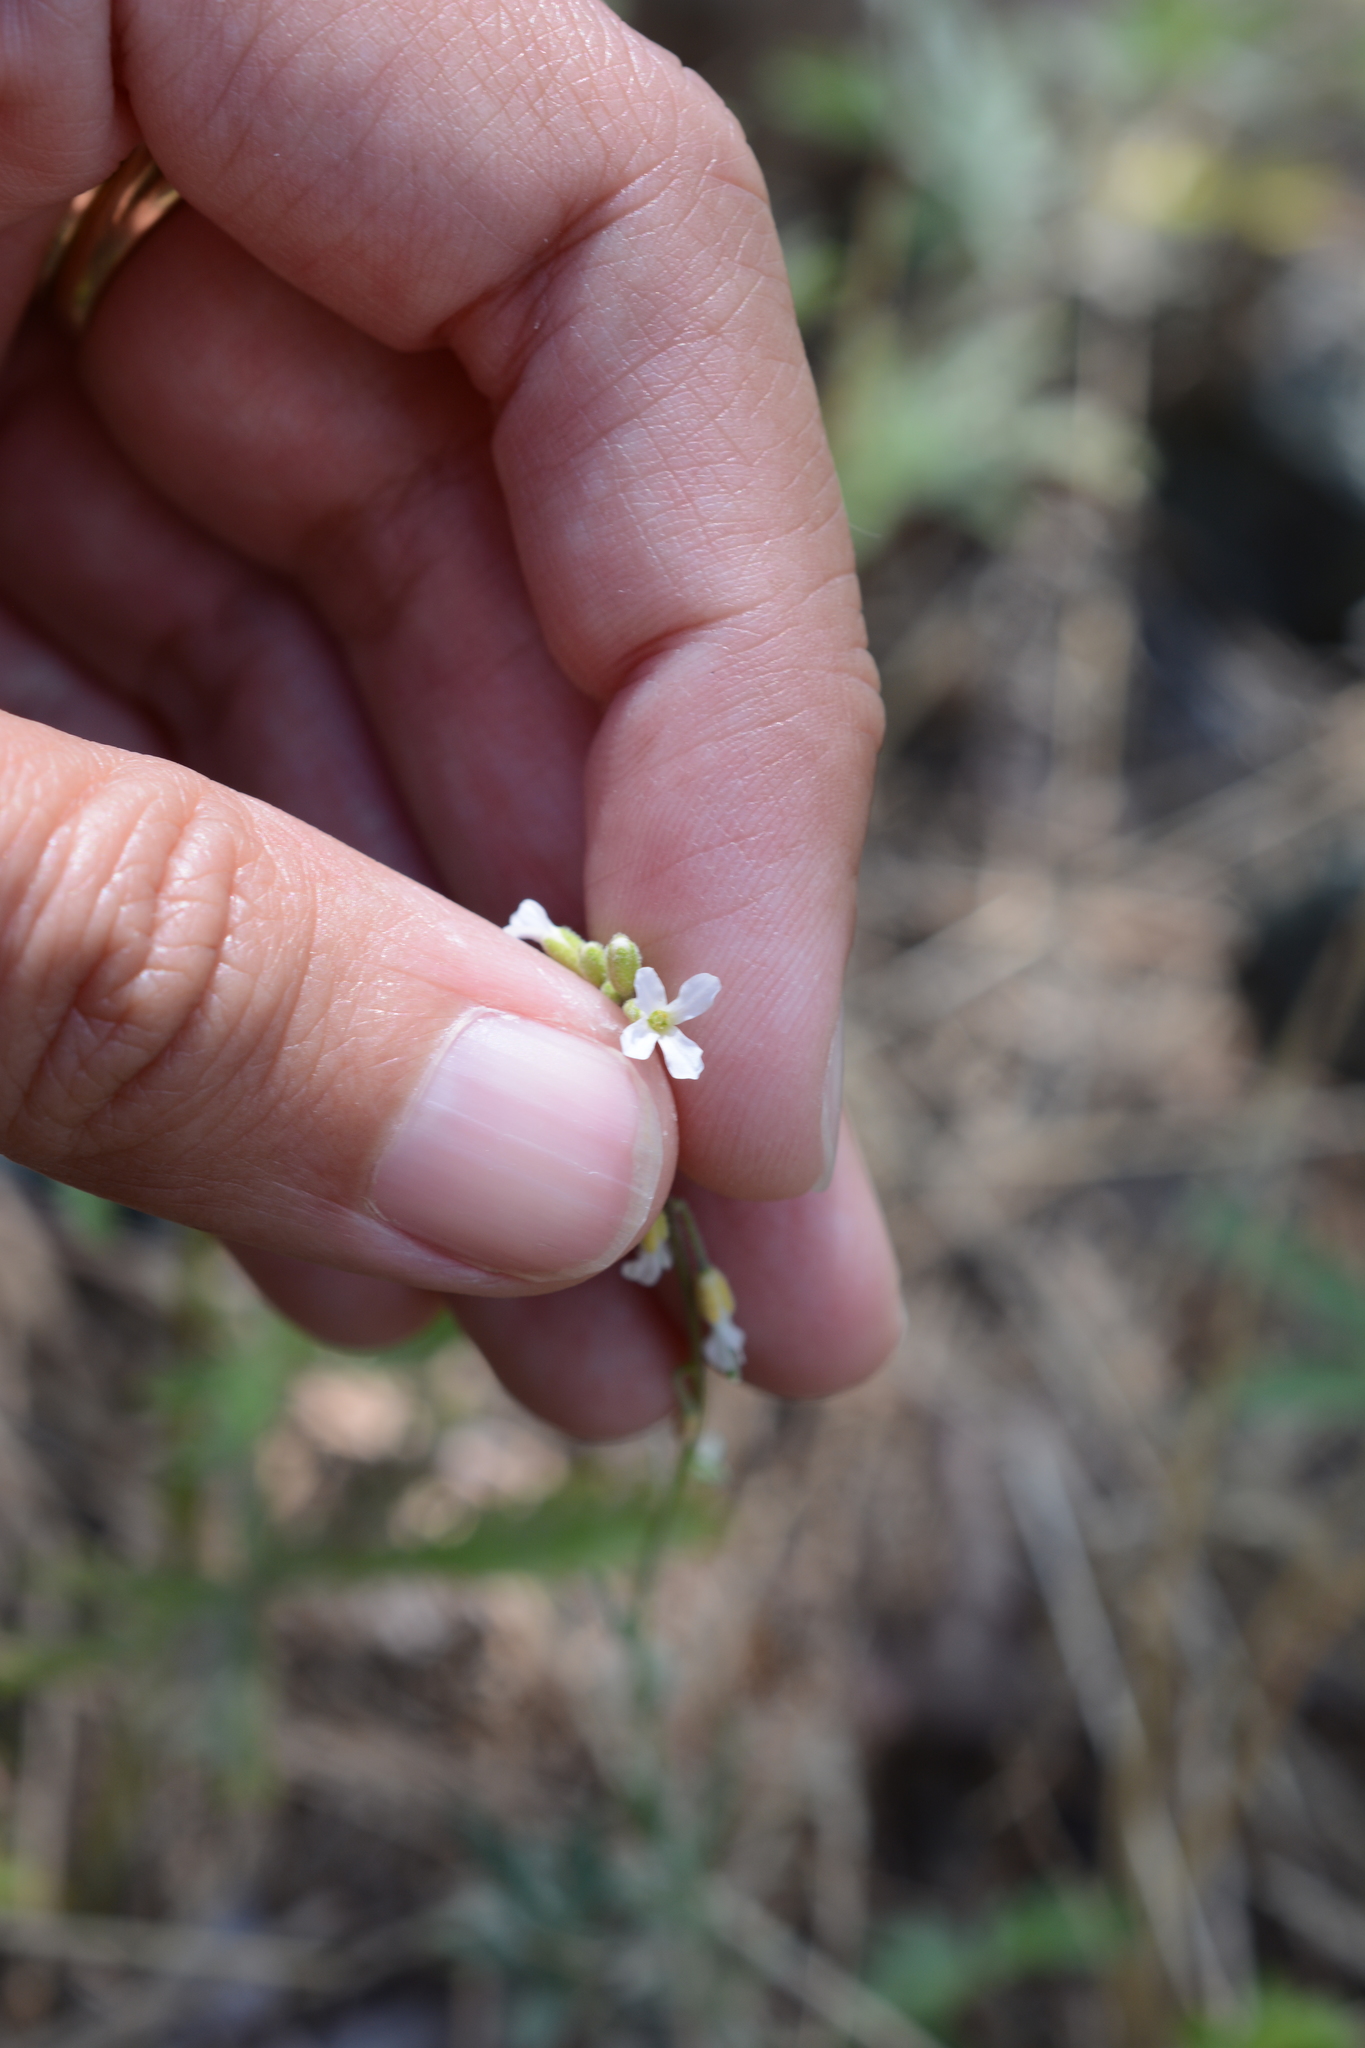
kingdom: Plantae
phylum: Tracheophyta
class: Magnoliopsida
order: Brassicales
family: Brassicaceae
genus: Boechera
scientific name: Boechera retrofracta
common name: Dangling suncress
